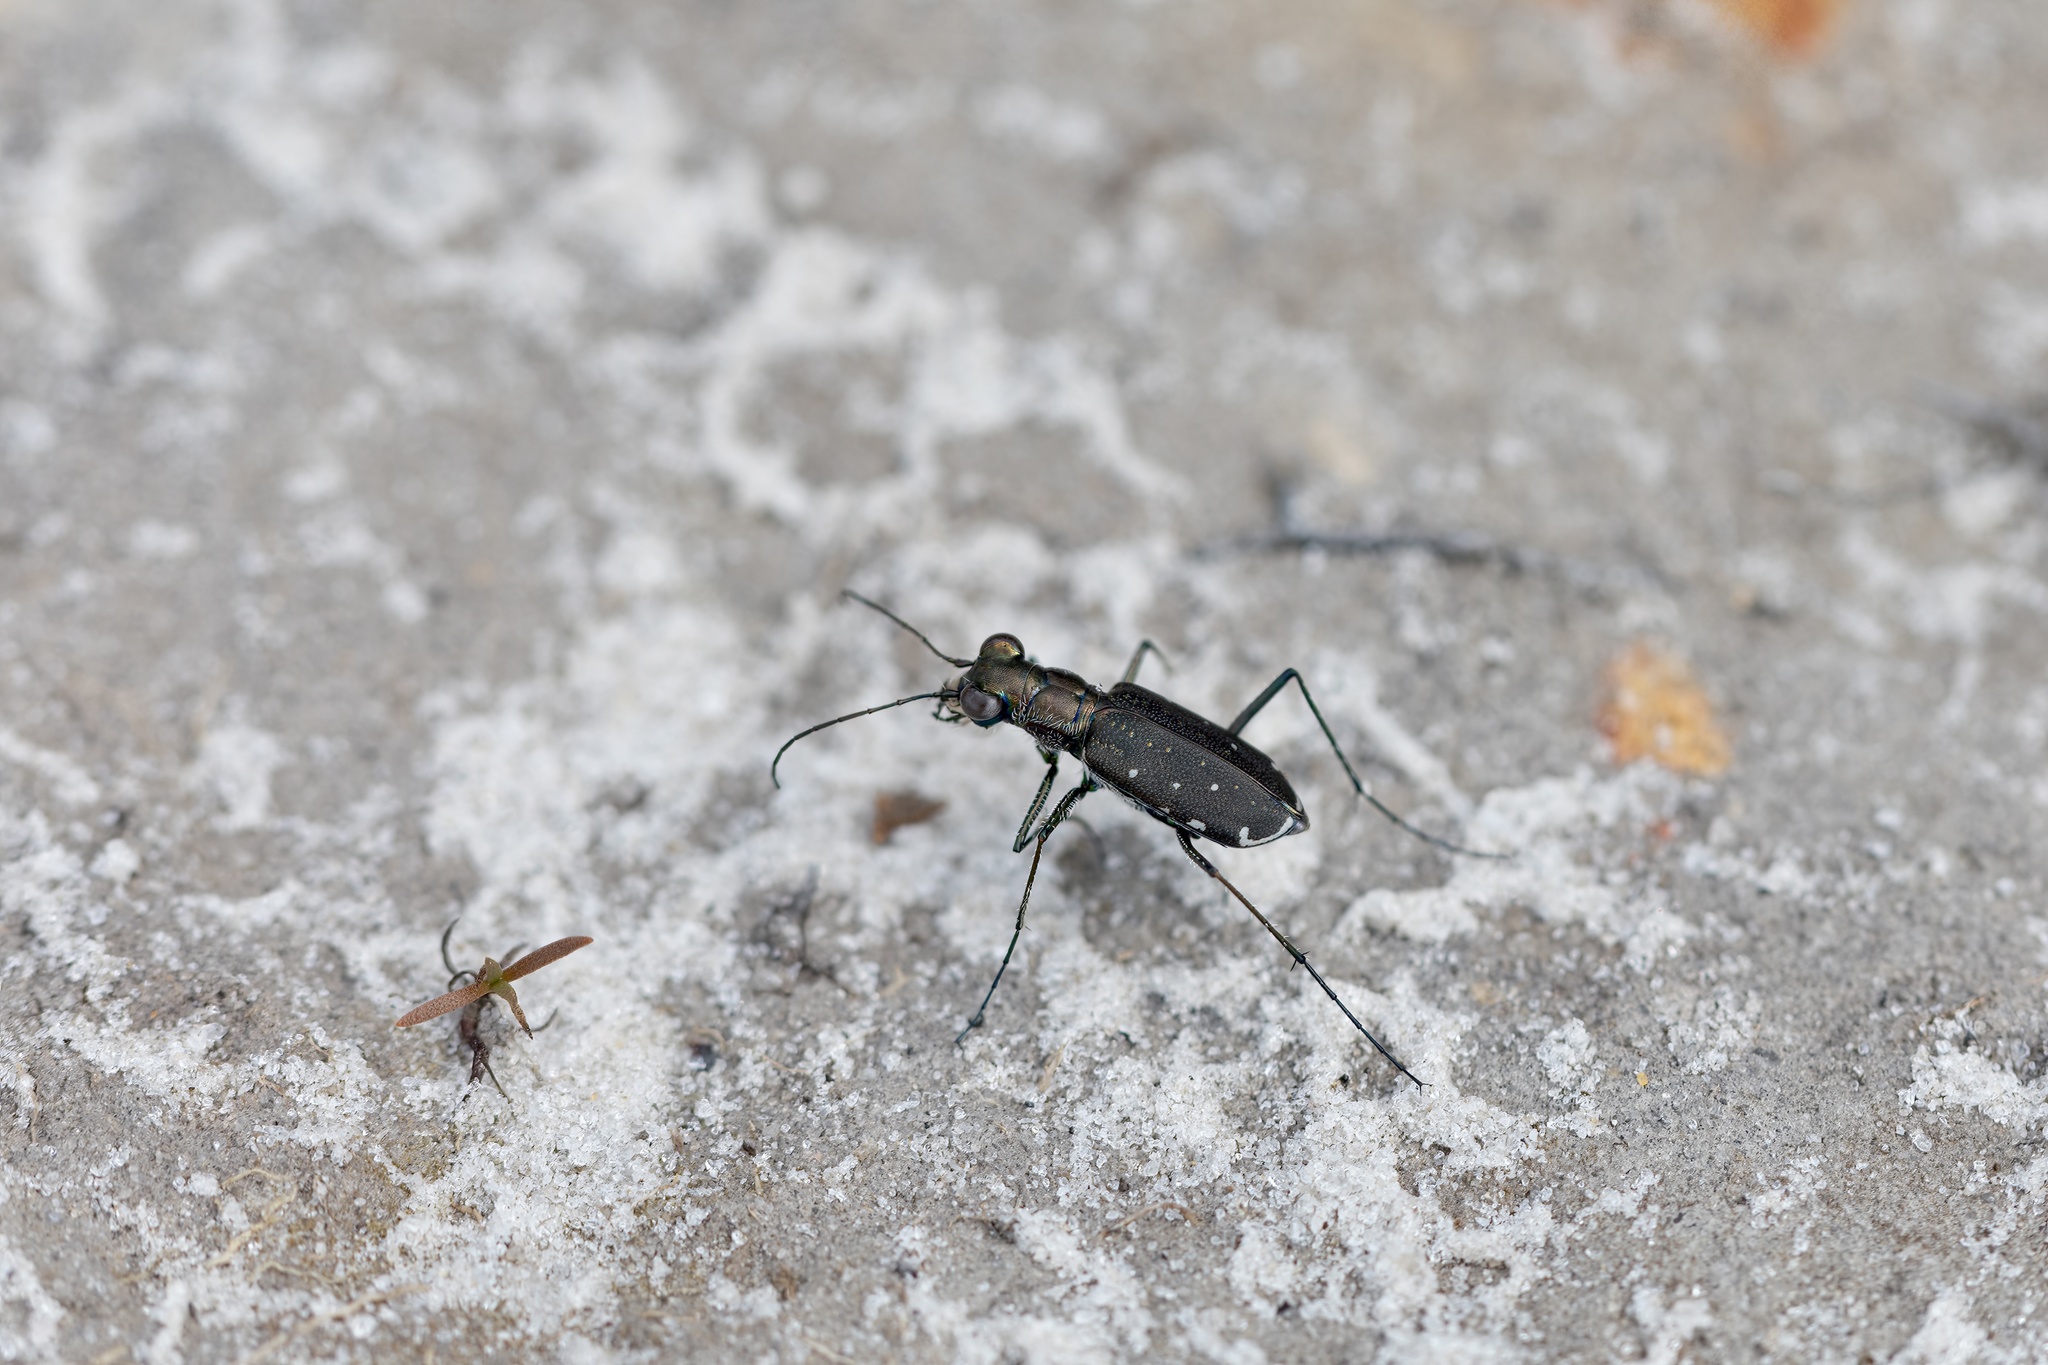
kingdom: Animalia
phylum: Arthropoda
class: Insecta
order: Coleoptera
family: Carabidae
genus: Cicindela
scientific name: Cicindela punctulata
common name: Punctured tiger beetle
